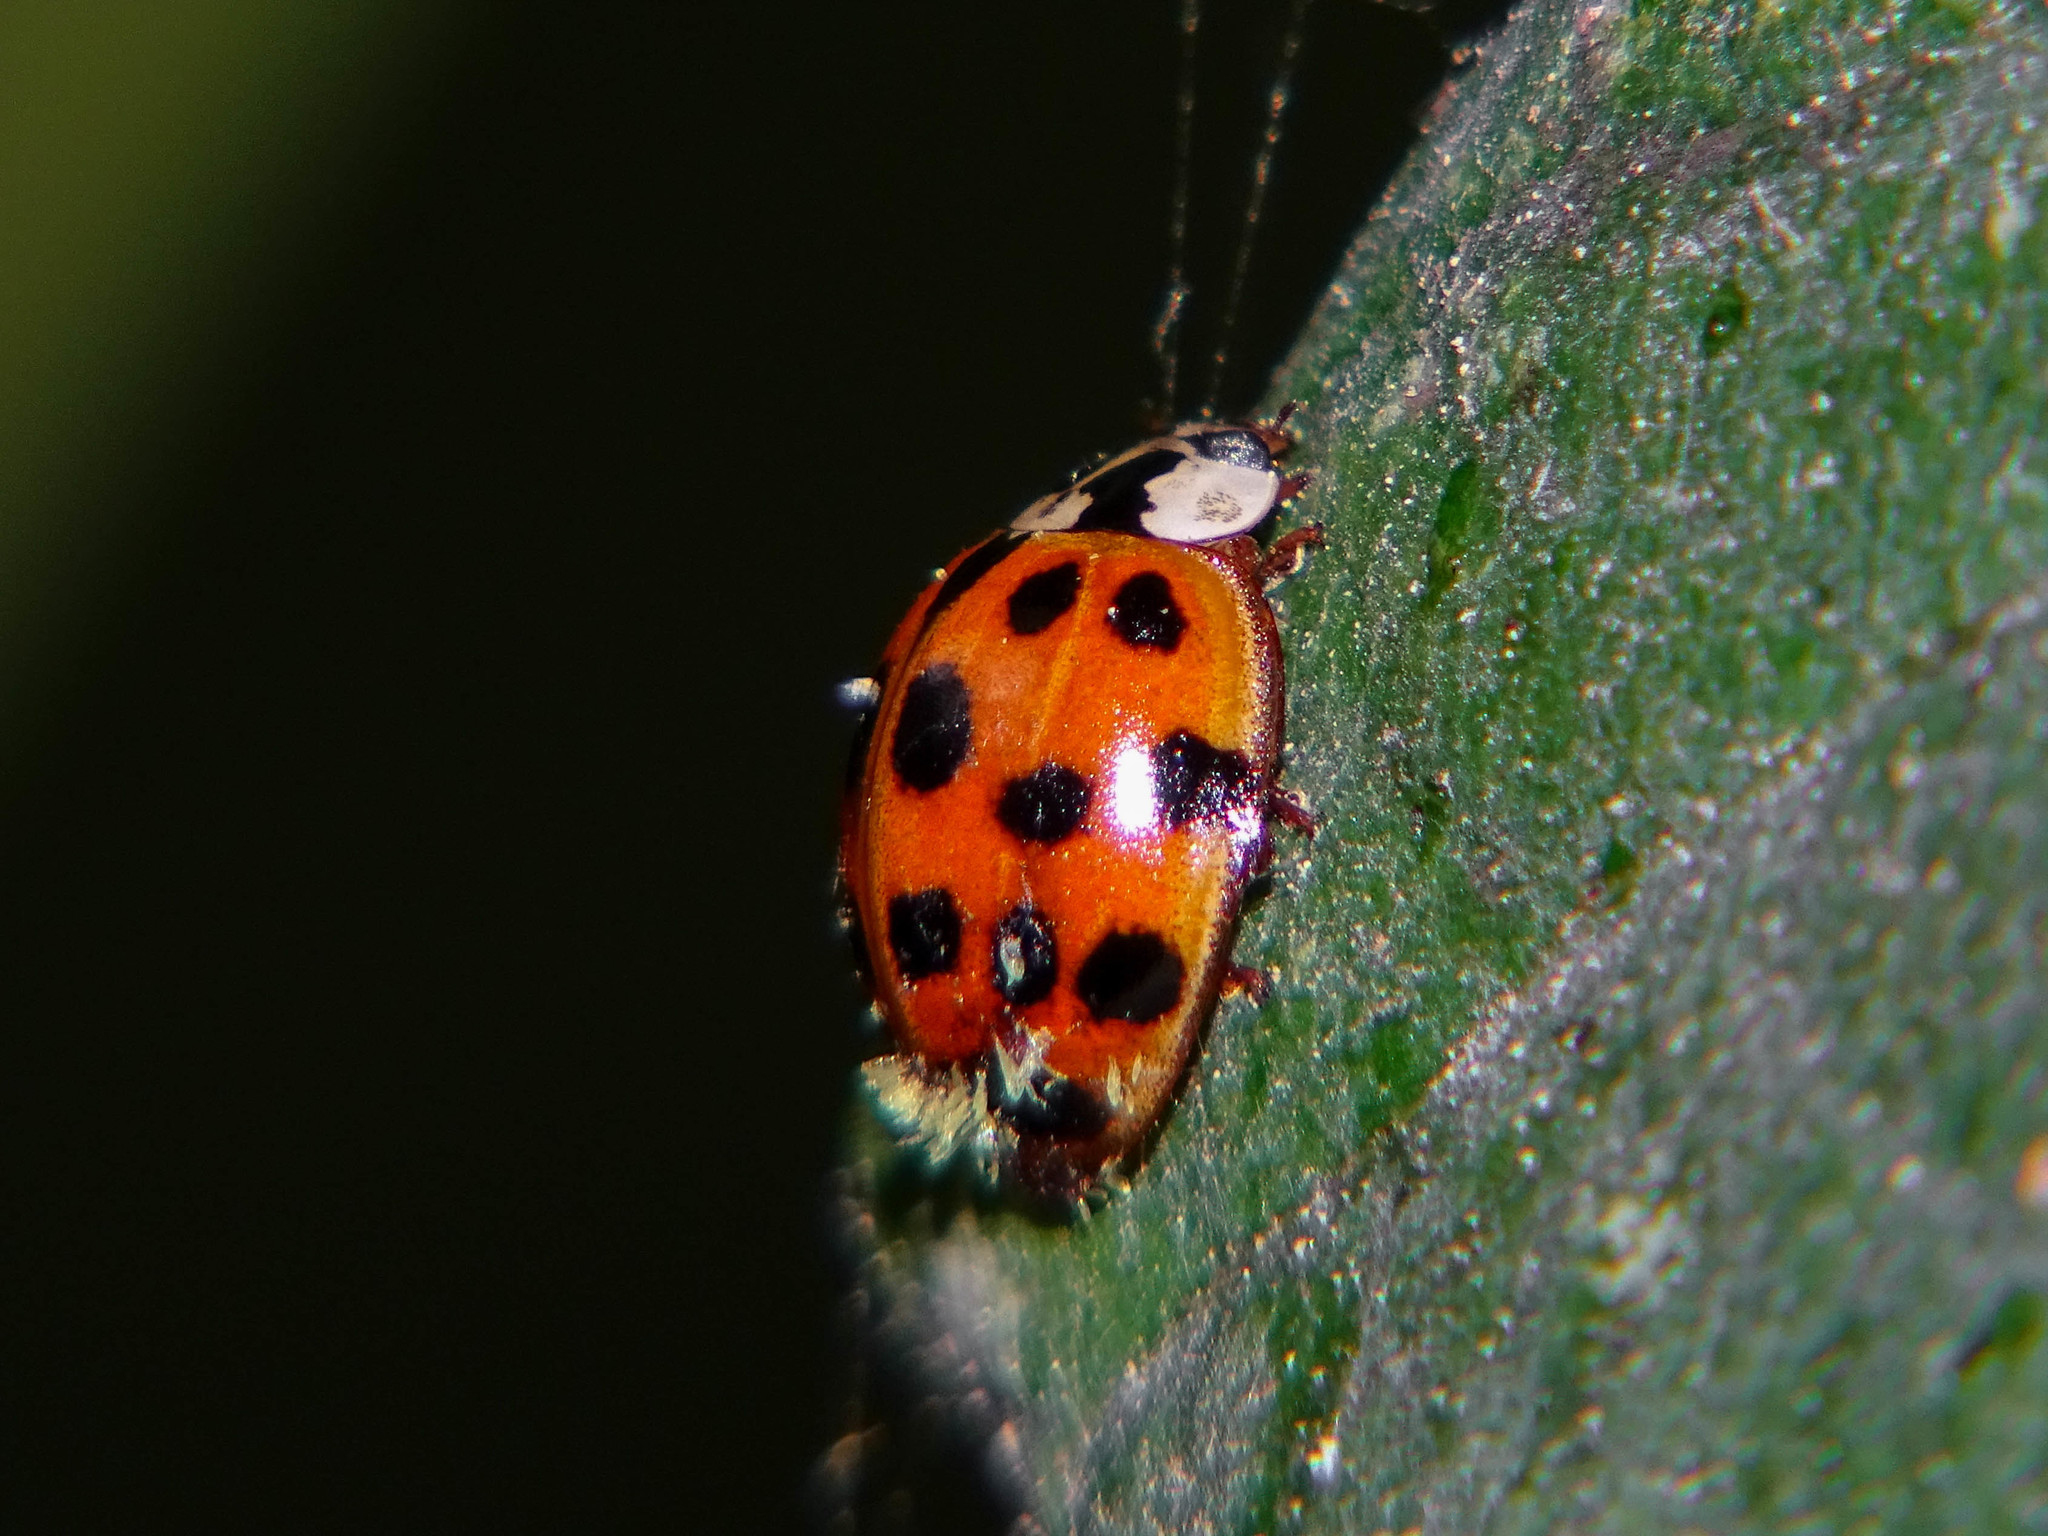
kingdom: Fungi
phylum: Ascomycota
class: Laboulbeniomycetes
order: Laboulbeniales
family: Laboulbeniaceae
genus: Hesperomyces
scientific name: Hesperomyces harmoniae
